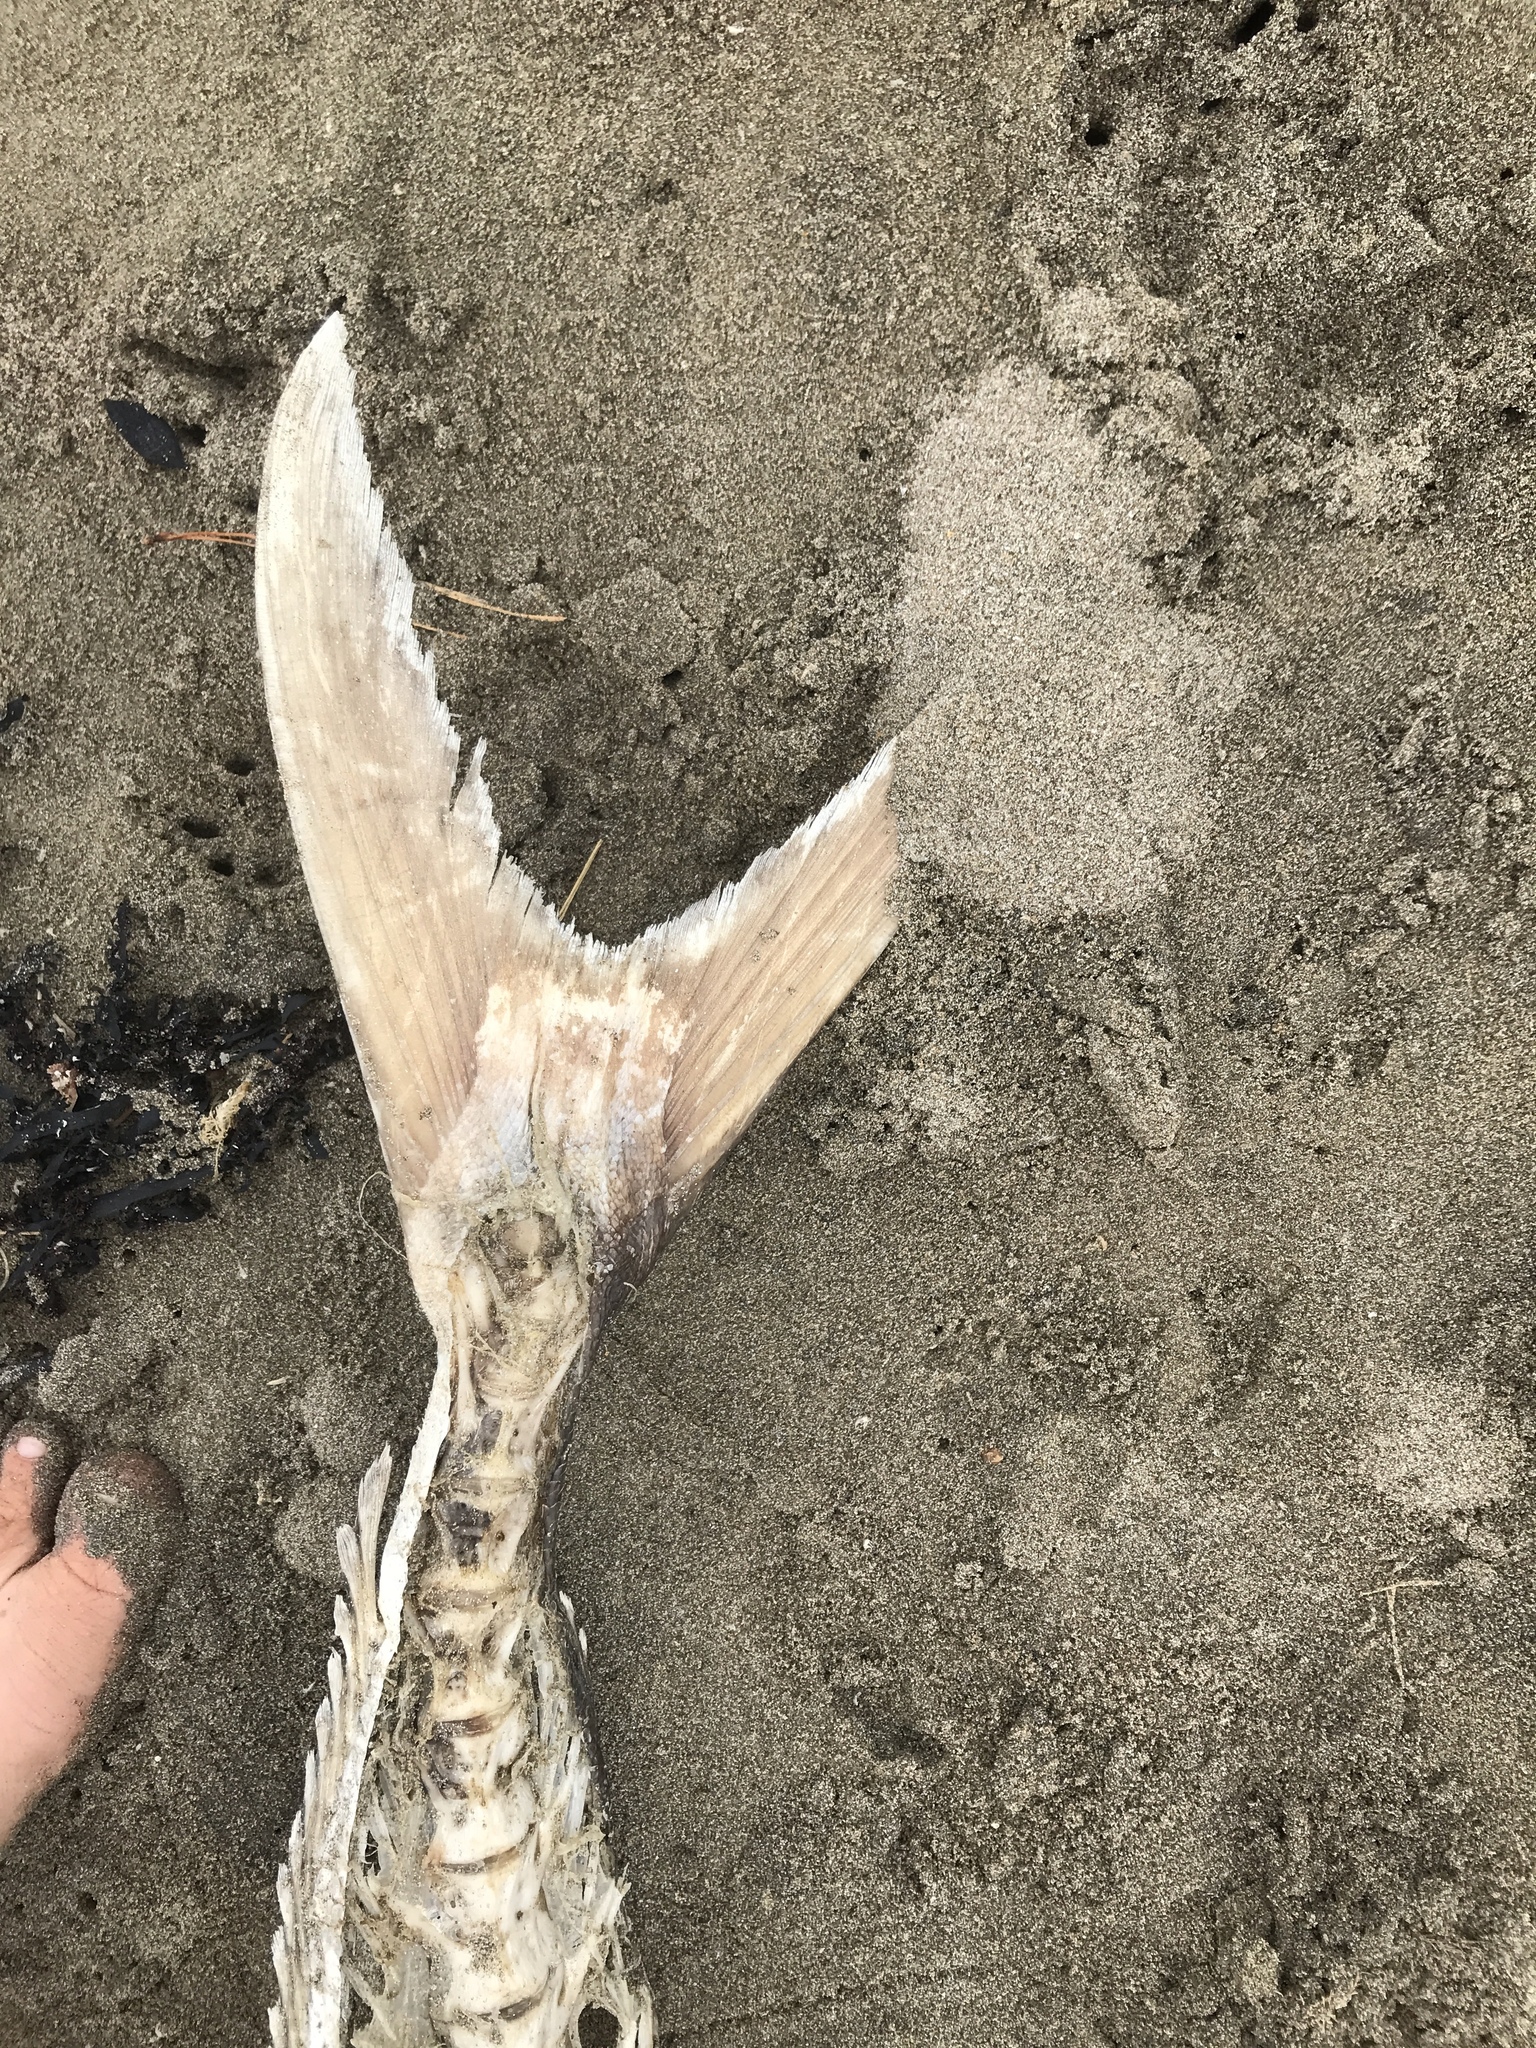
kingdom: Animalia
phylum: Chordata
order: Perciformes
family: Carangidae
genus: Seriola
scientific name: Seriola lalandi
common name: Yellowtail kingfish
